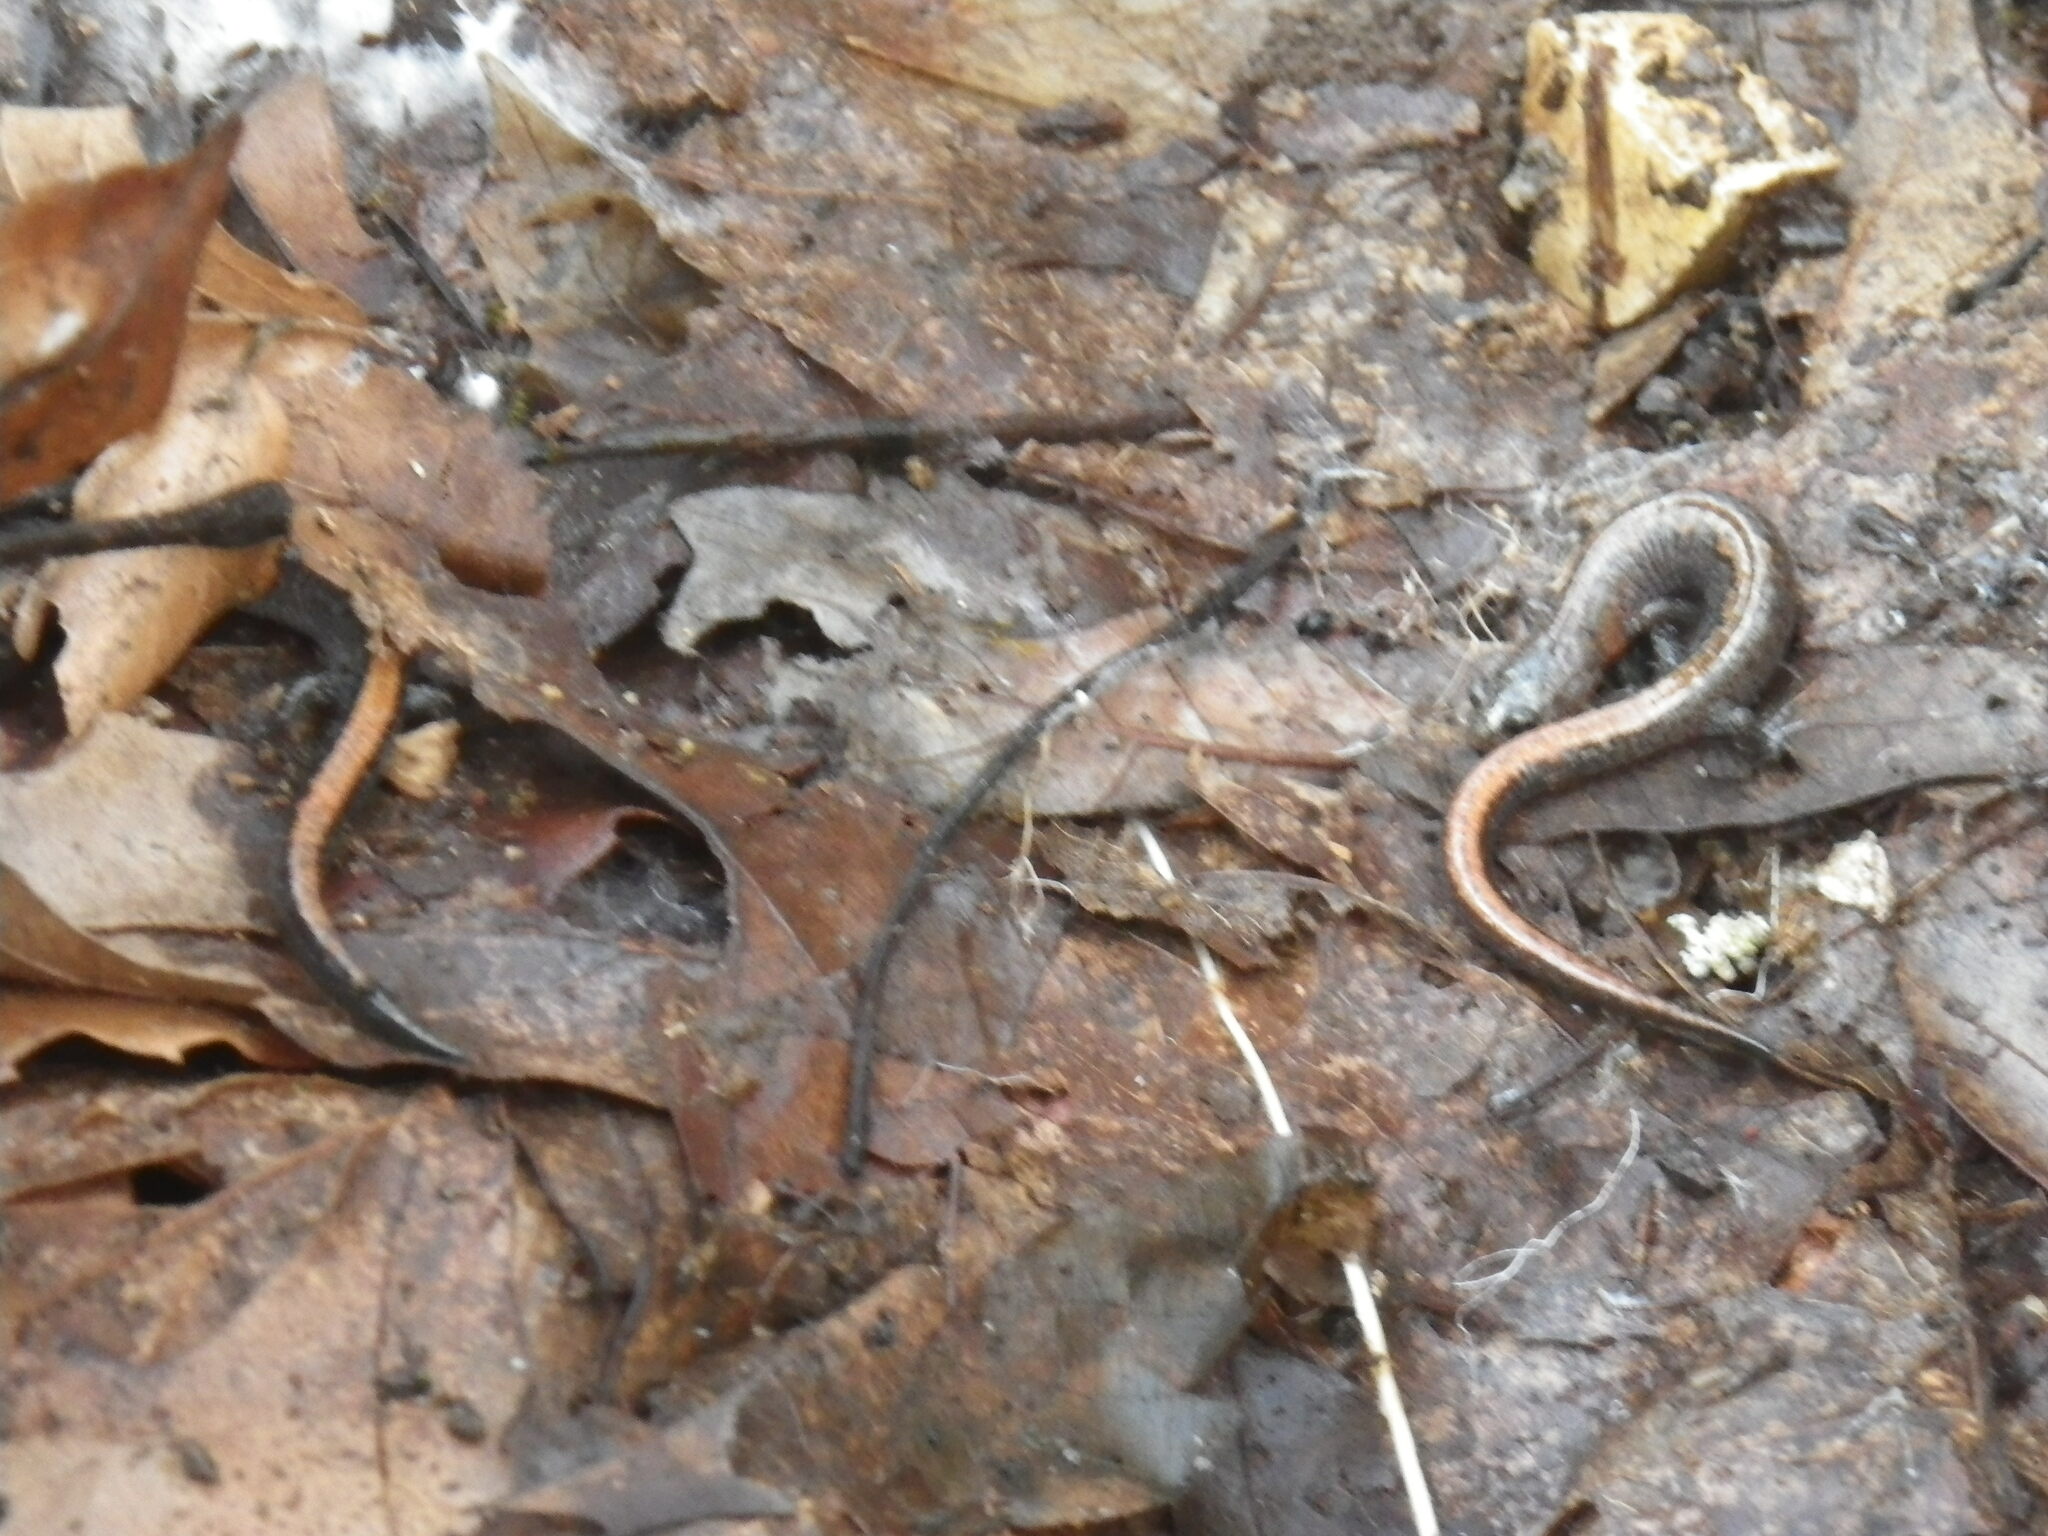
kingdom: Animalia
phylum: Chordata
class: Amphibia
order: Caudata
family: Plethodontidae
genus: Plethodon
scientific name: Plethodon dorsalis
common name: Northern zigzag salamander
